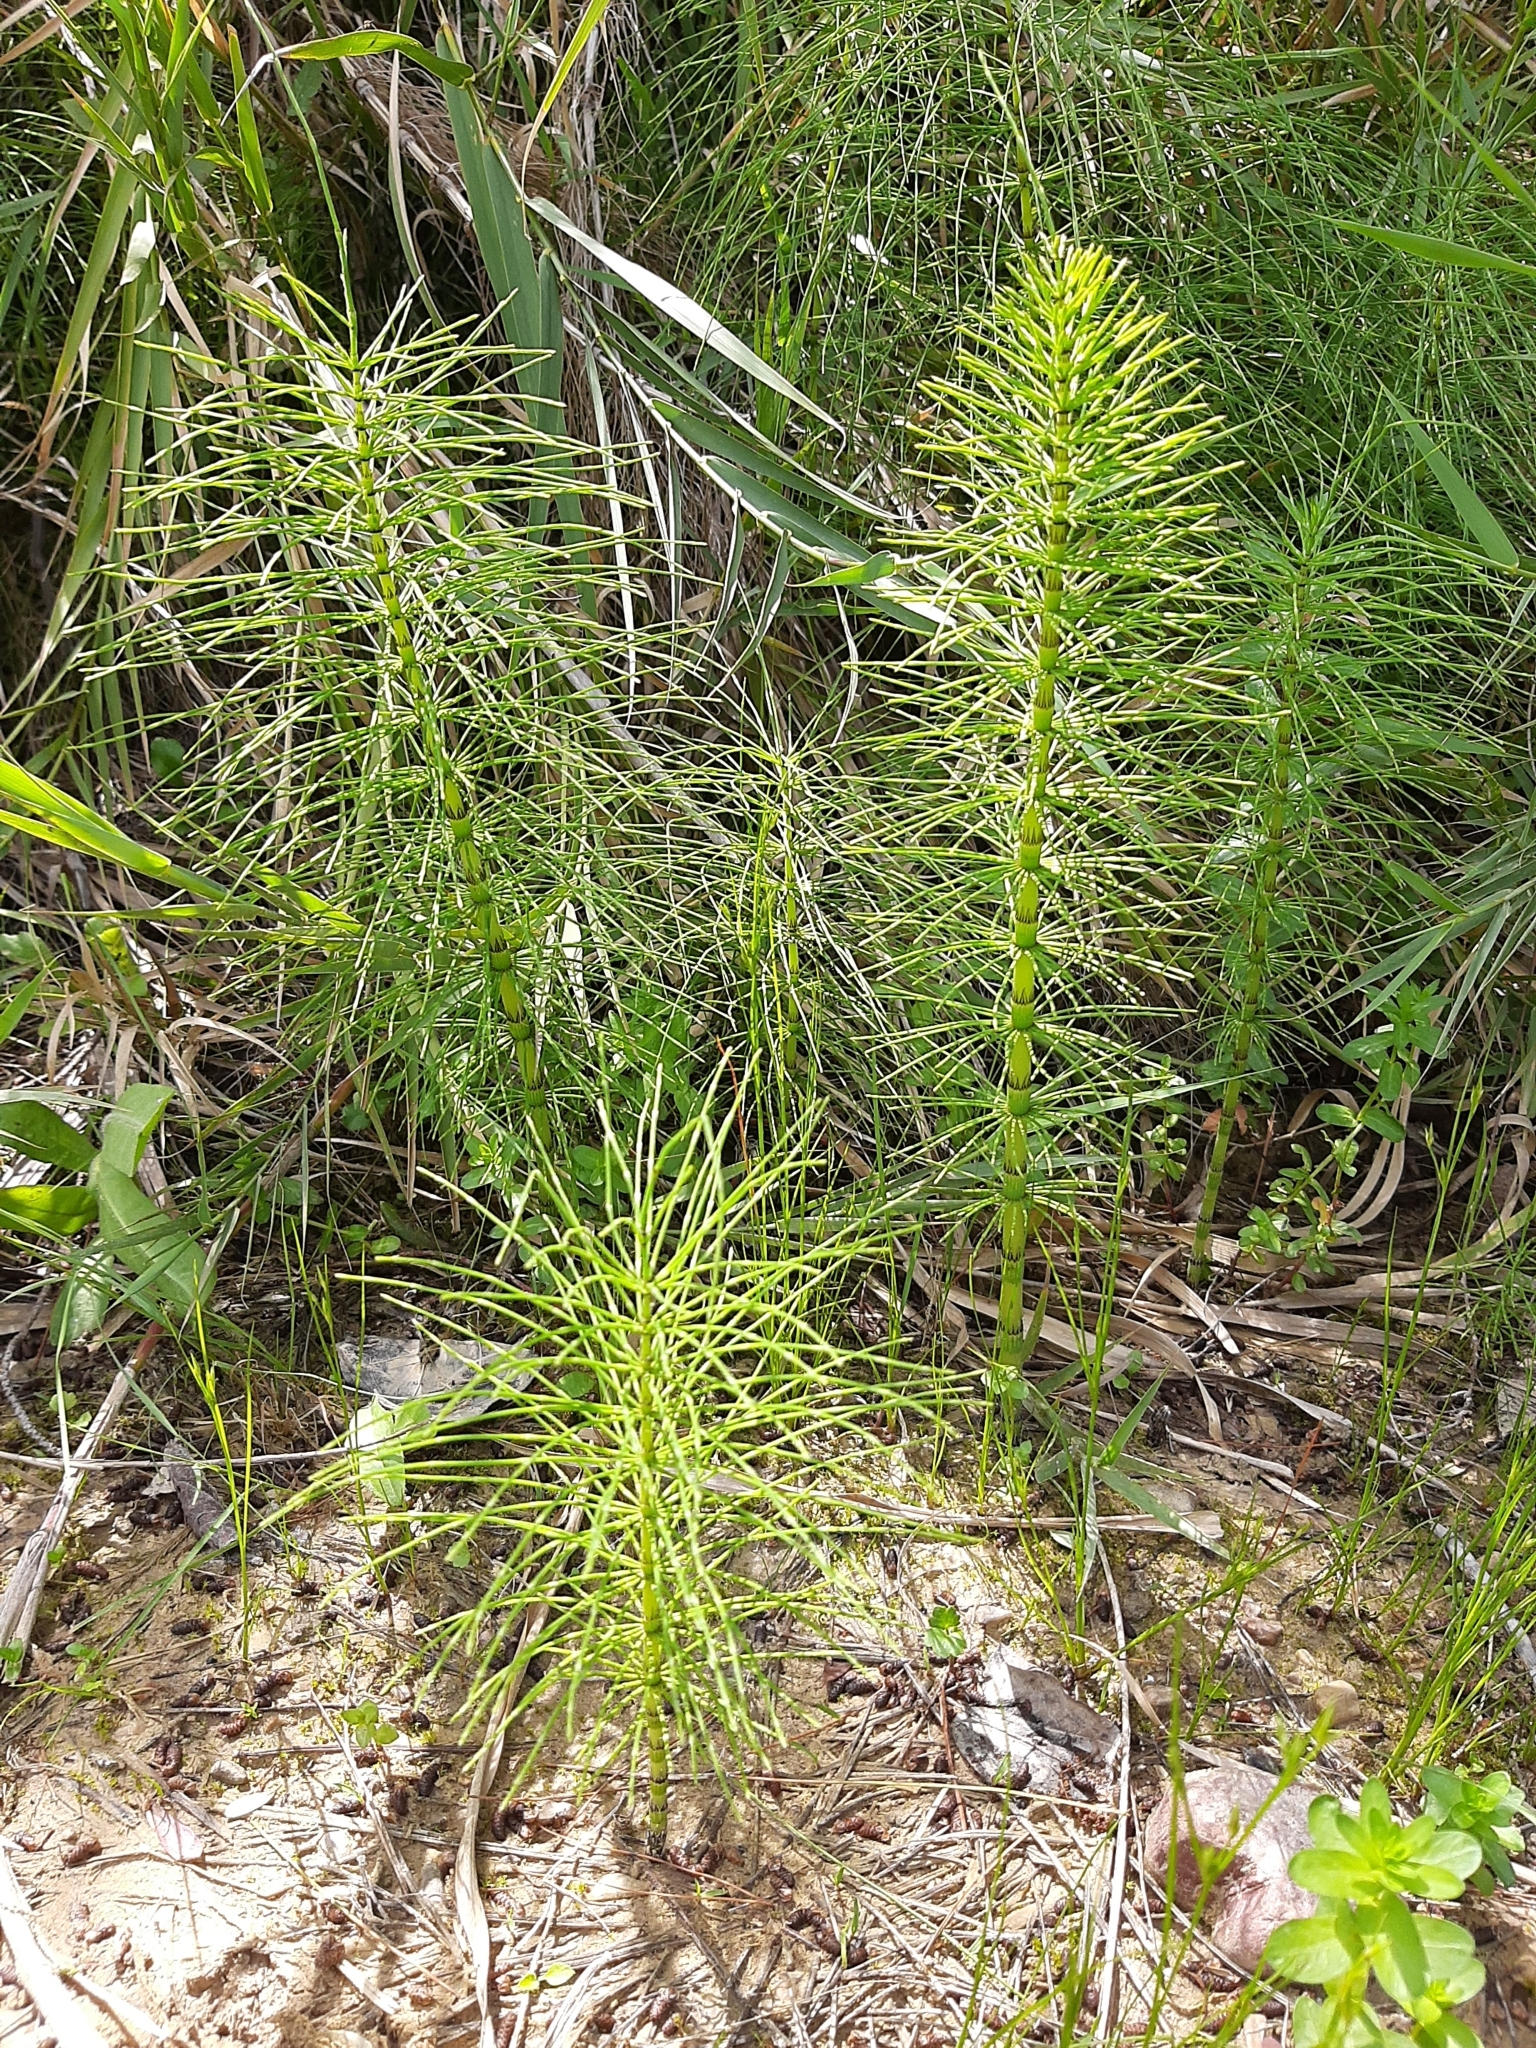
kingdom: Plantae
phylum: Tracheophyta
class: Polypodiopsida
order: Equisetales
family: Equisetaceae
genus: Equisetum
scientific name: Equisetum telmateia
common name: Great horsetail
